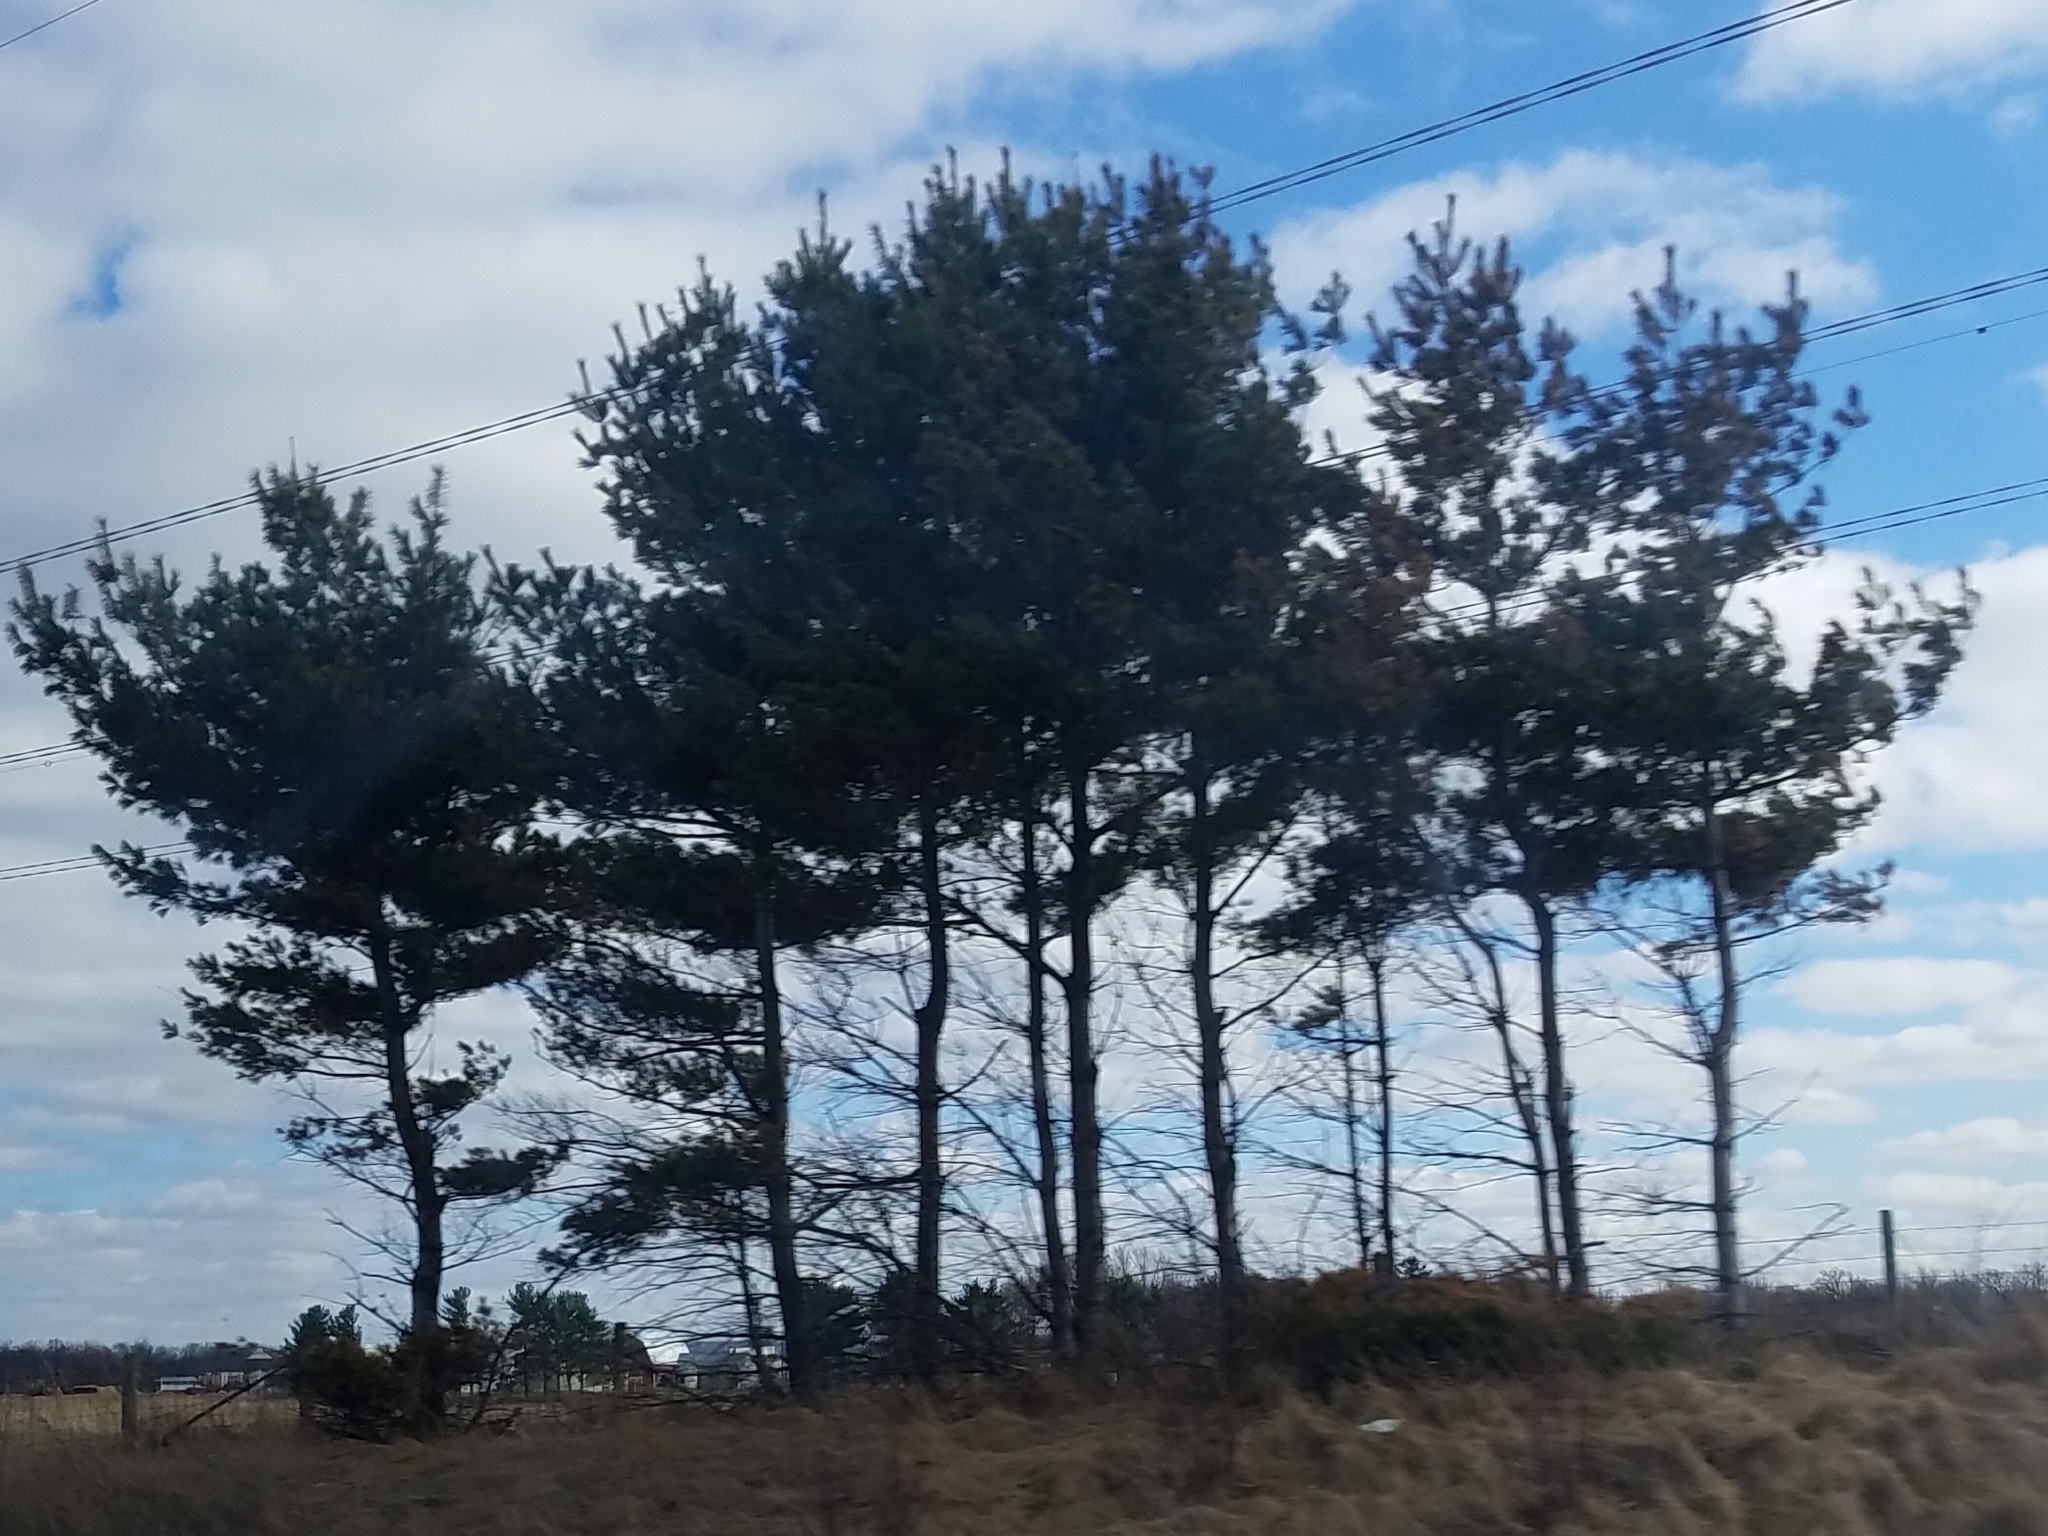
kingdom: Plantae
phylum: Tracheophyta
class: Pinopsida
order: Pinales
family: Pinaceae
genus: Pinus
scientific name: Pinus strobus
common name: Weymouth pine
